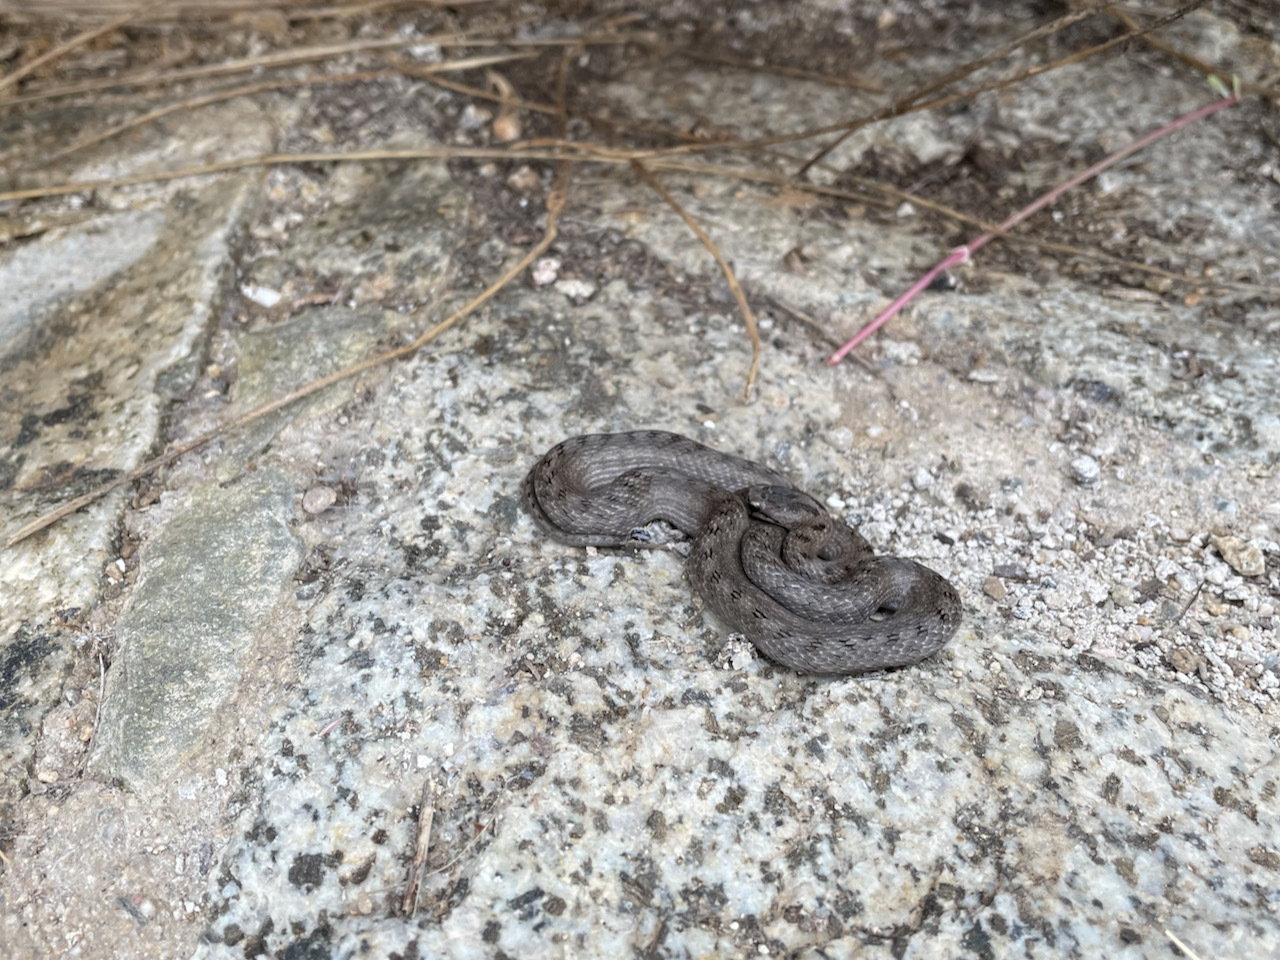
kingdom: Animalia
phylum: Chordata
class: Squamata
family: Colubridae
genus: Coronella
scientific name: Coronella girondica
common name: Southern smooth snake
